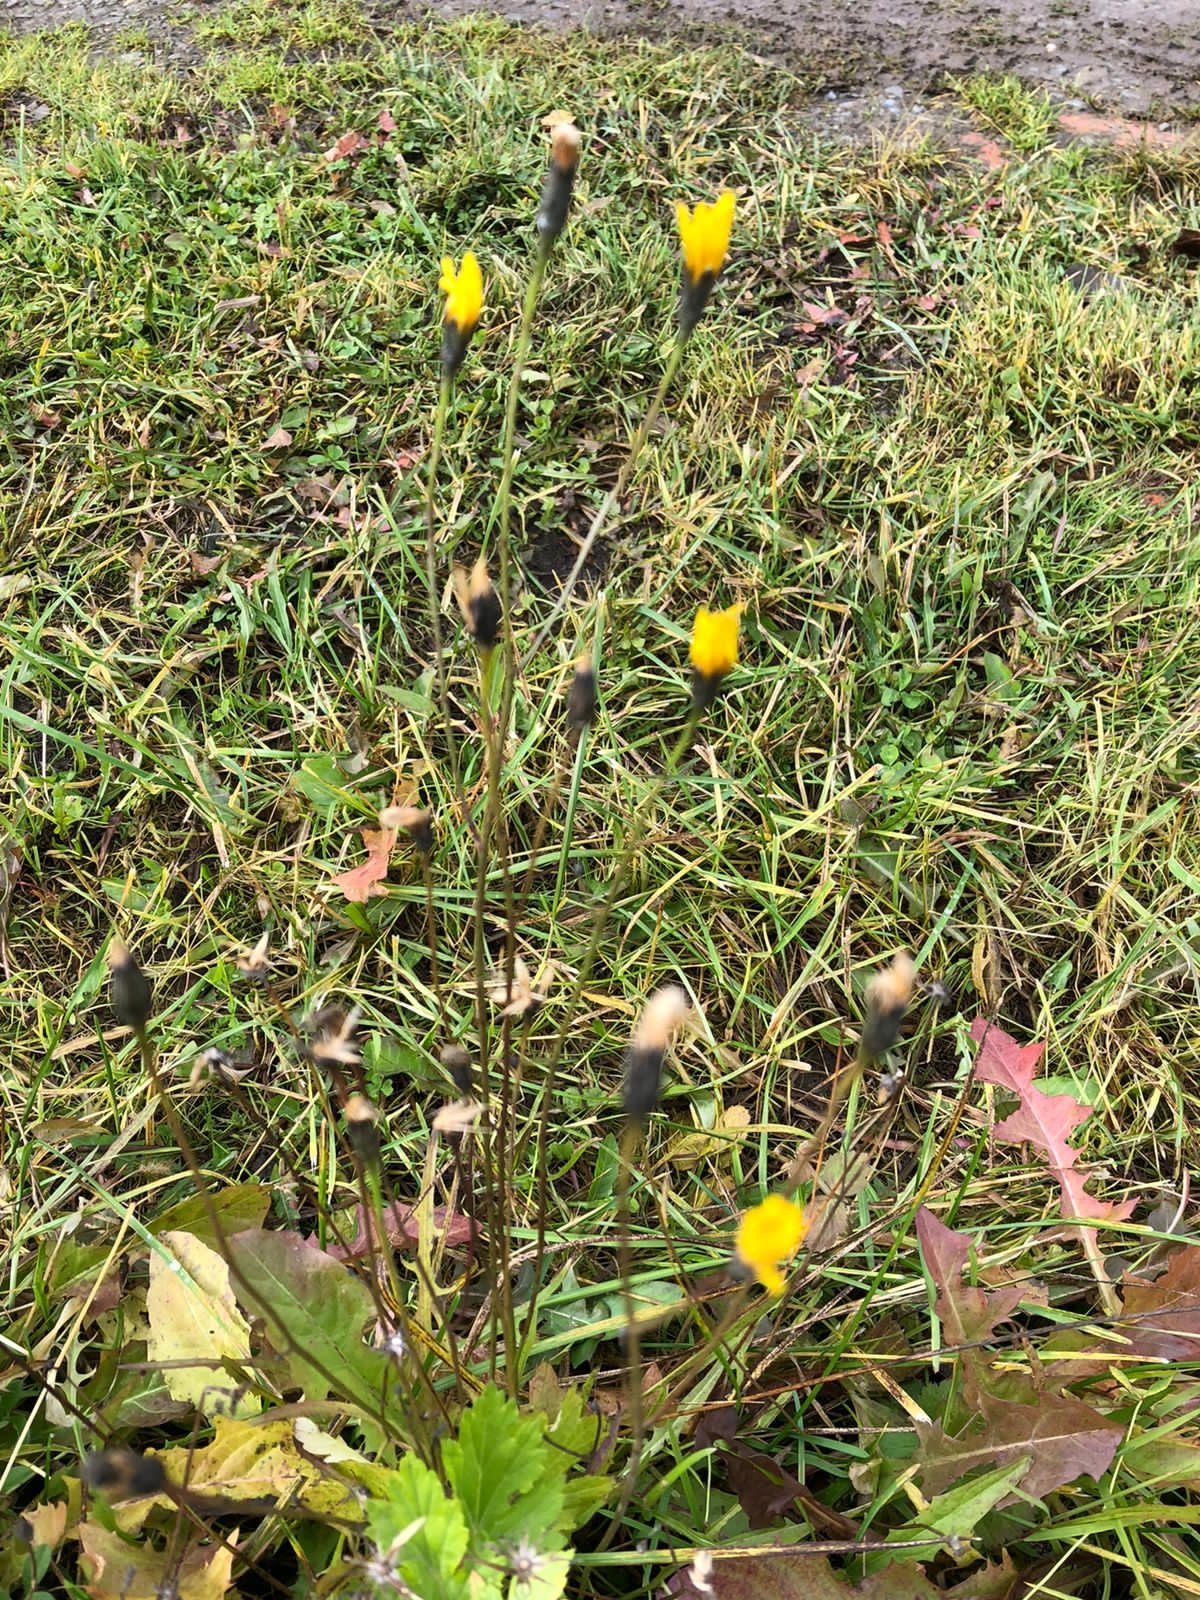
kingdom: Plantae
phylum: Tracheophyta
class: Magnoliopsida
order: Asterales
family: Asteraceae
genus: Scorzoneroides
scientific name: Scorzoneroides autumnalis
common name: Autumn hawkbit
